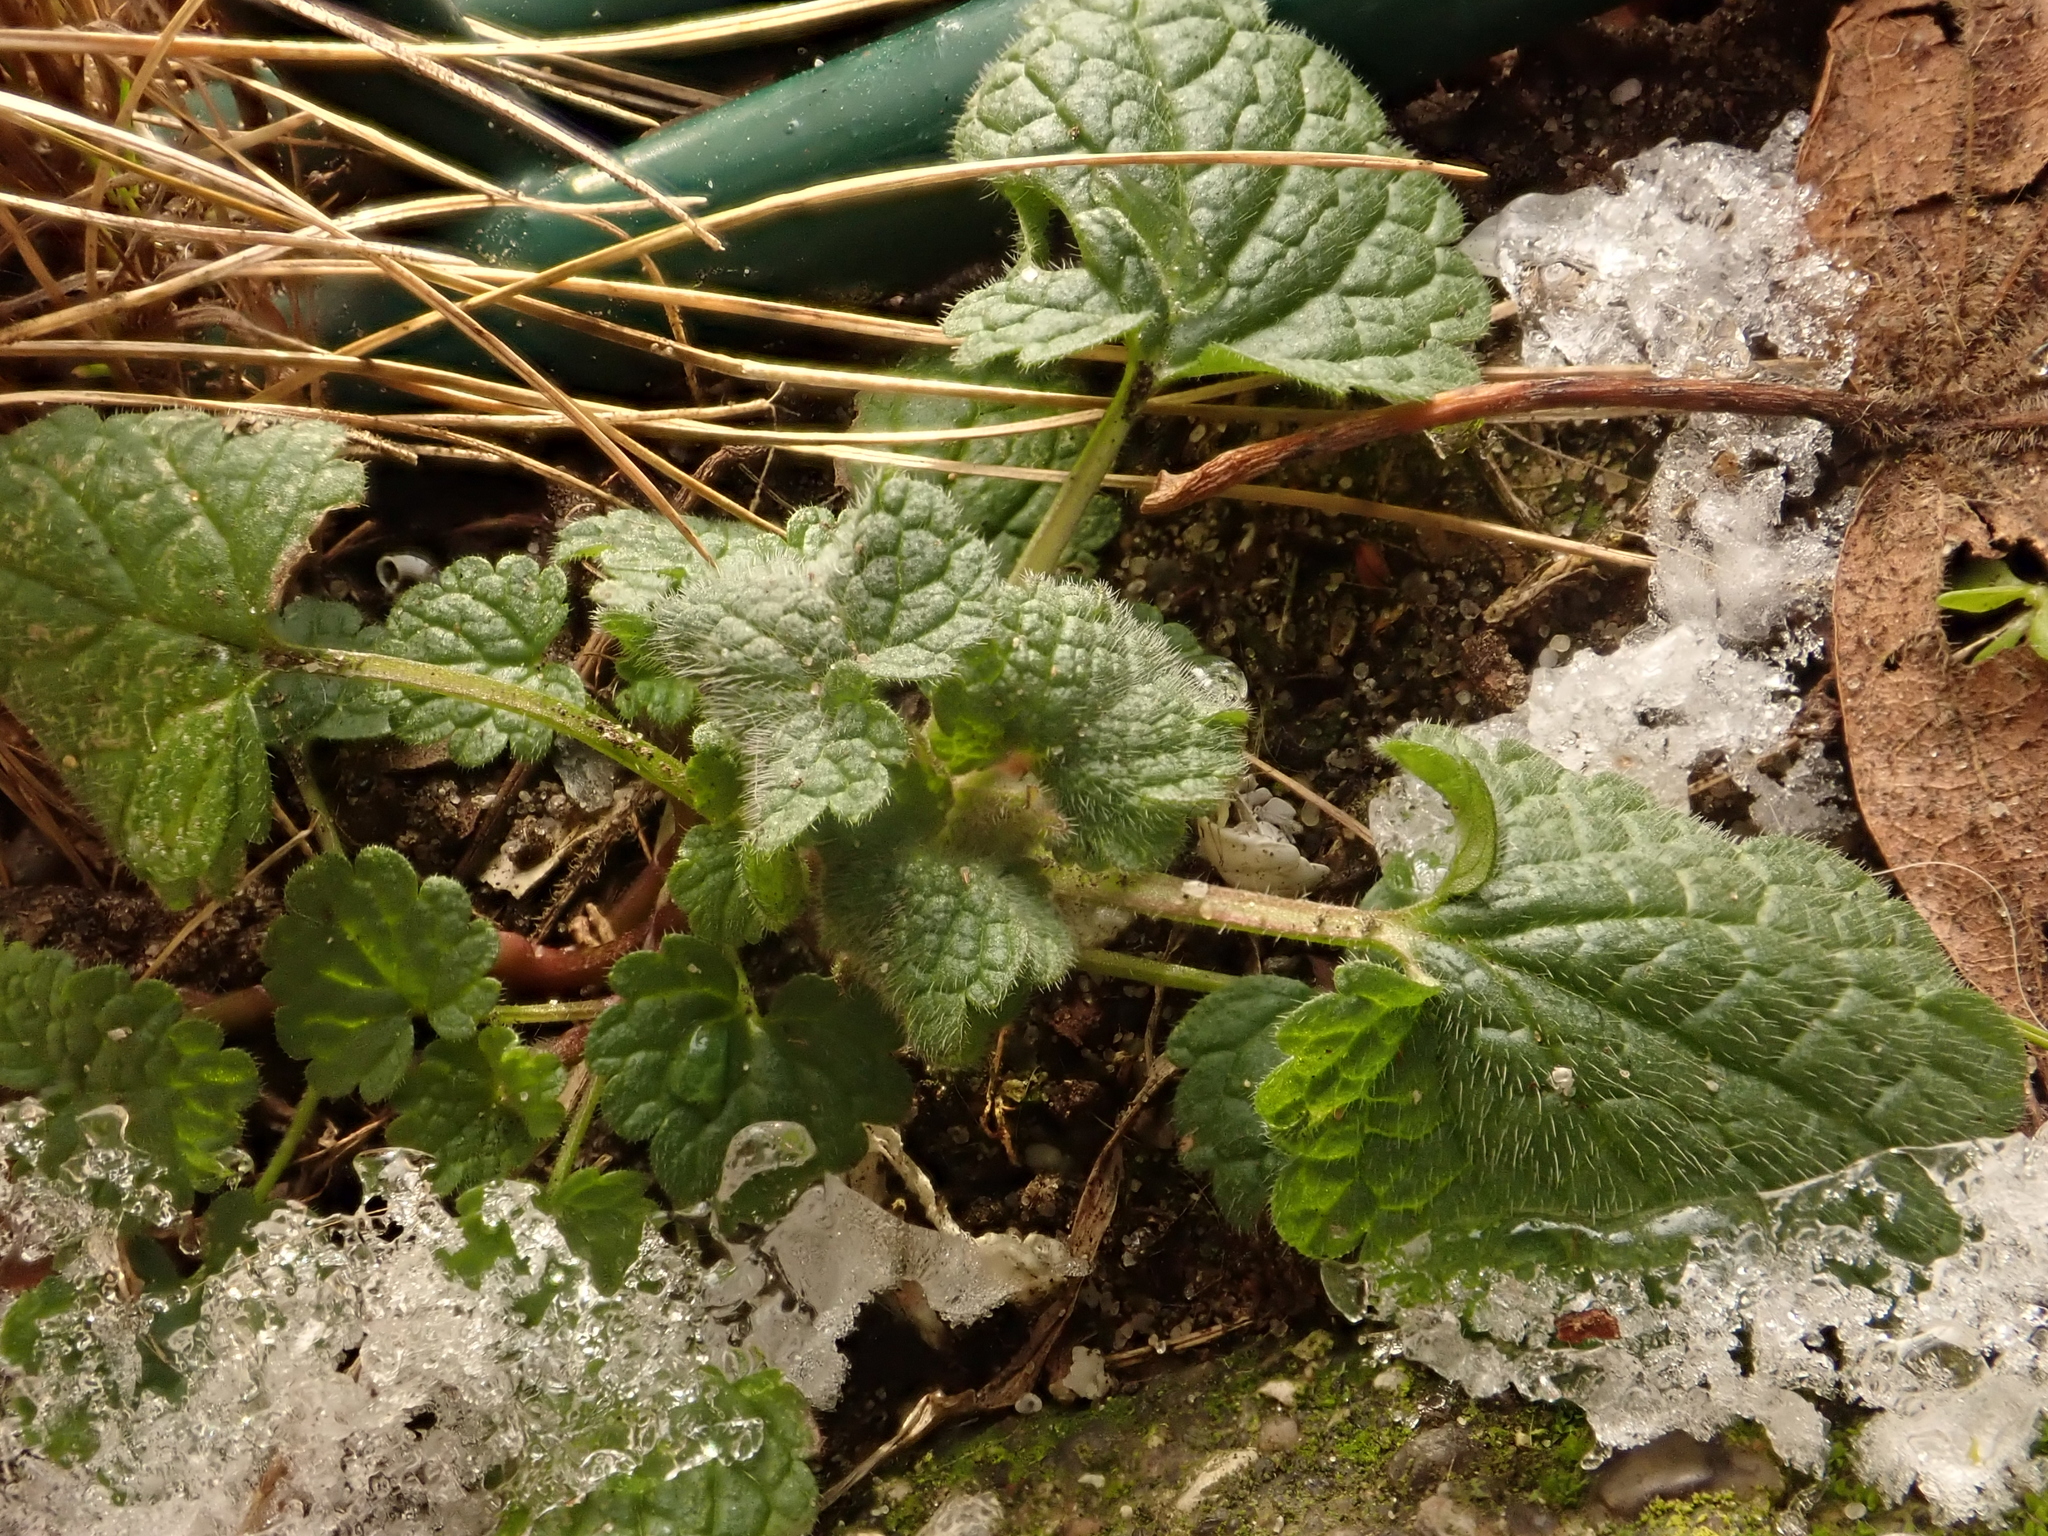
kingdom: Plantae
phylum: Tracheophyta
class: Magnoliopsida
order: Lamiales
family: Lamiaceae
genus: Lamium
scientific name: Lamium purpureum
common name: Red dead-nettle
